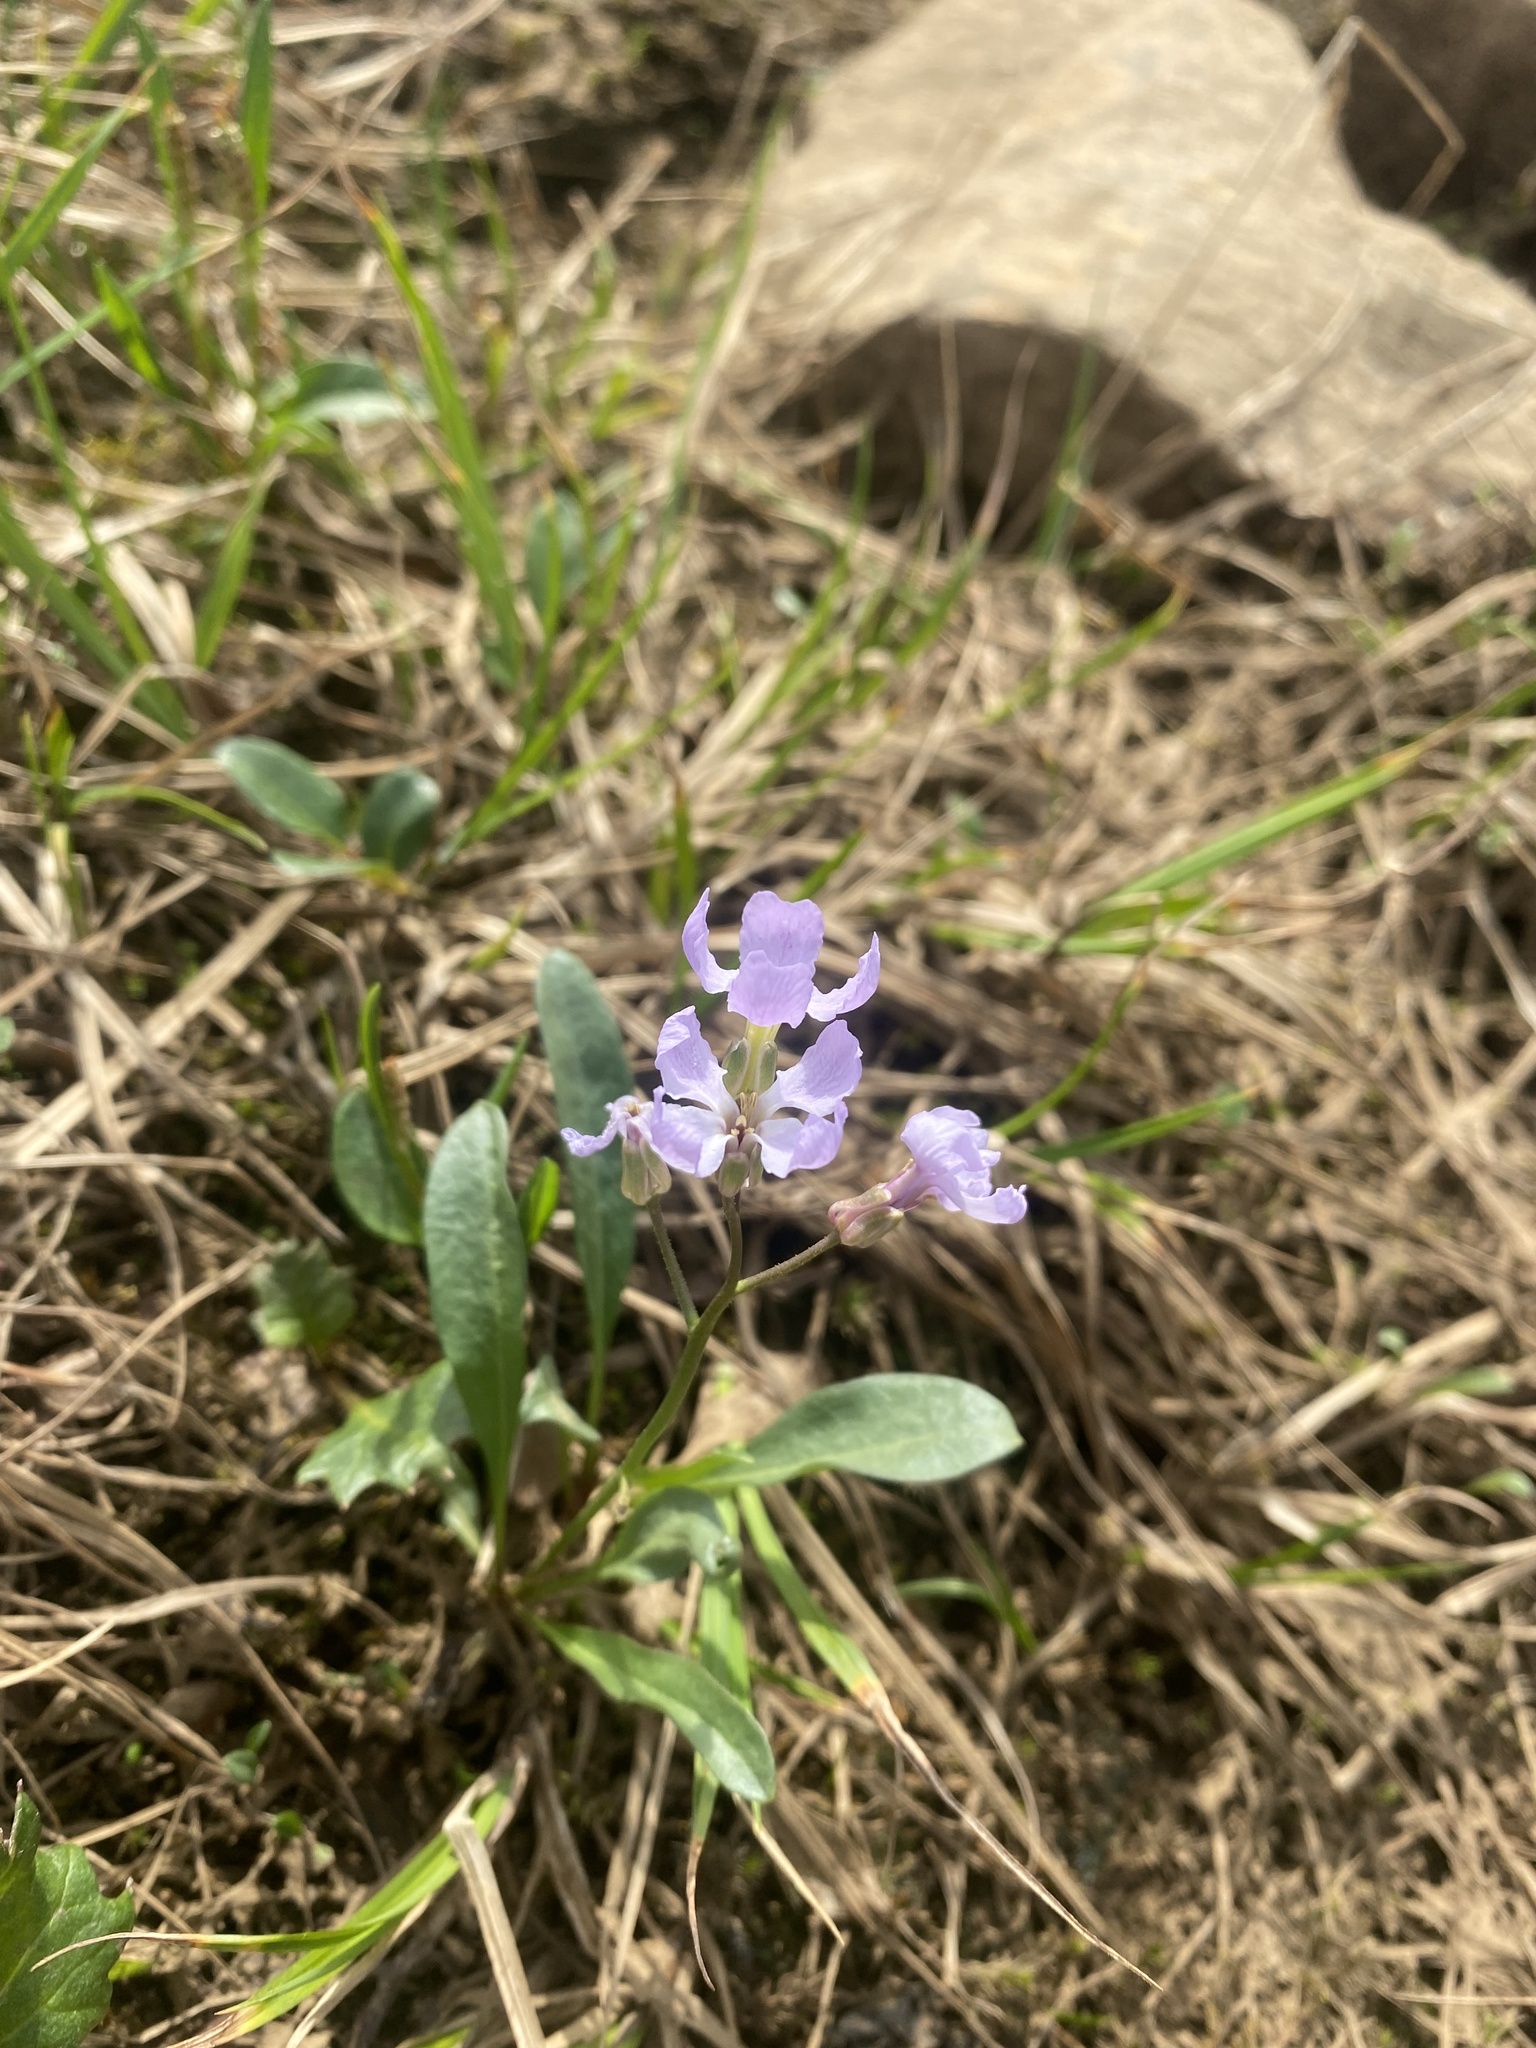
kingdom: Plantae
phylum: Tracheophyta
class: Magnoliopsida
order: Brassicales
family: Brassicaceae
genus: Parrya
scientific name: Parrya nudicaulis
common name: Naked-stemmed false wallflower
